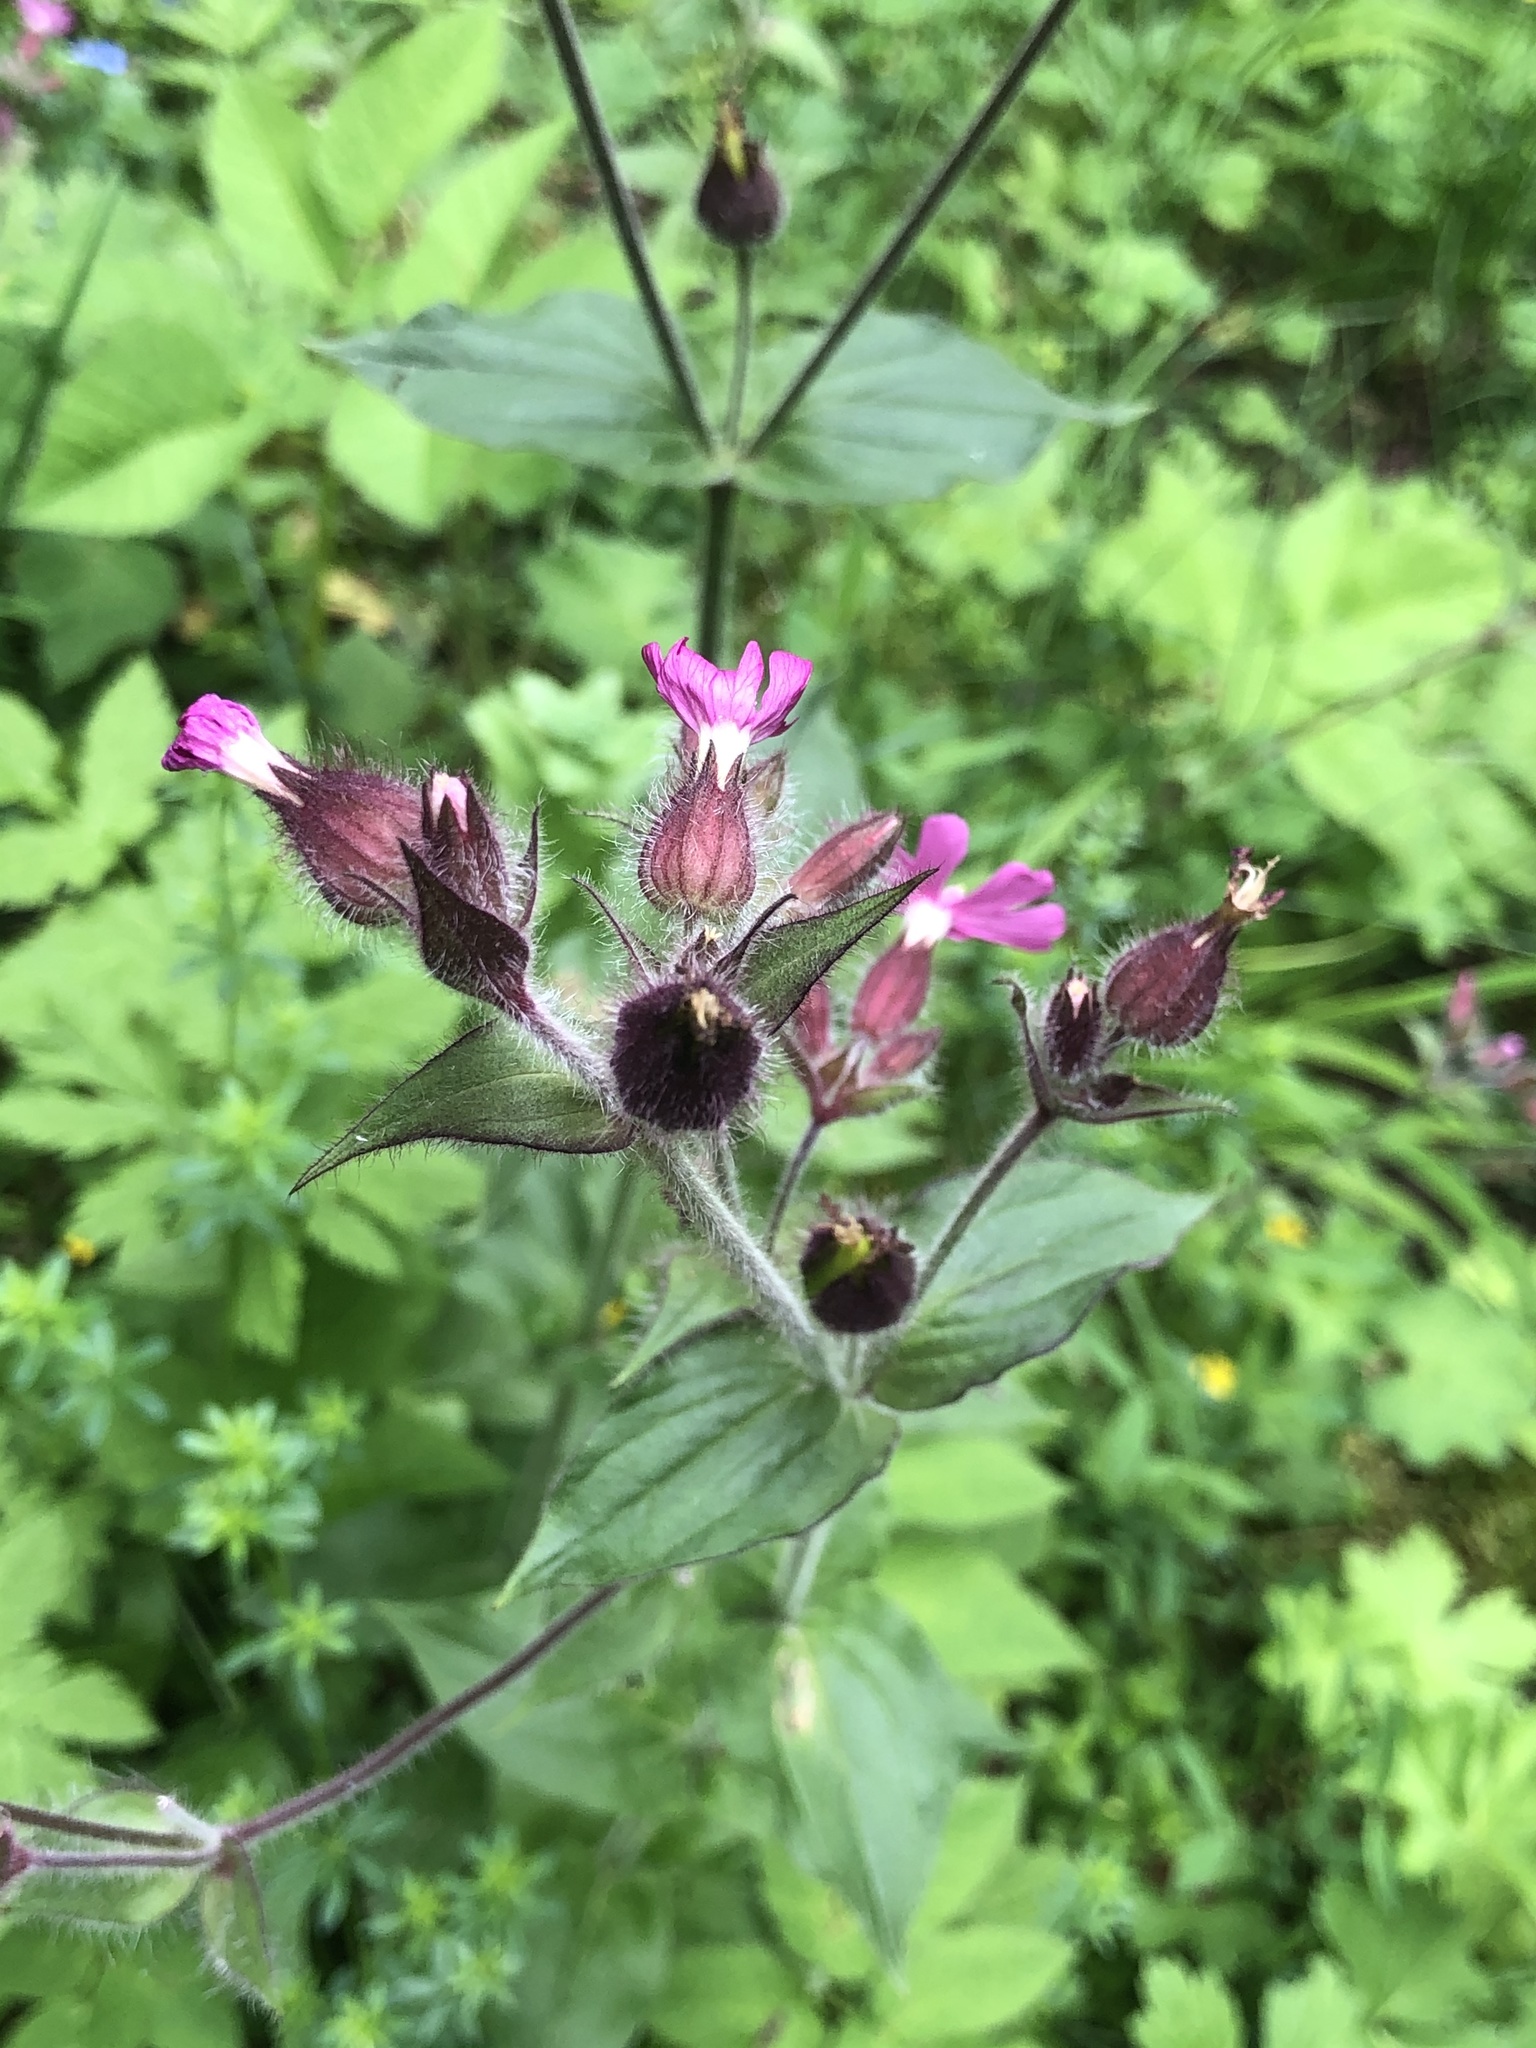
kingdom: Plantae
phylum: Tracheophyta
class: Magnoliopsida
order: Caryophyllales
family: Caryophyllaceae
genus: Silene
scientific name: Silene dioica
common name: Red campion
